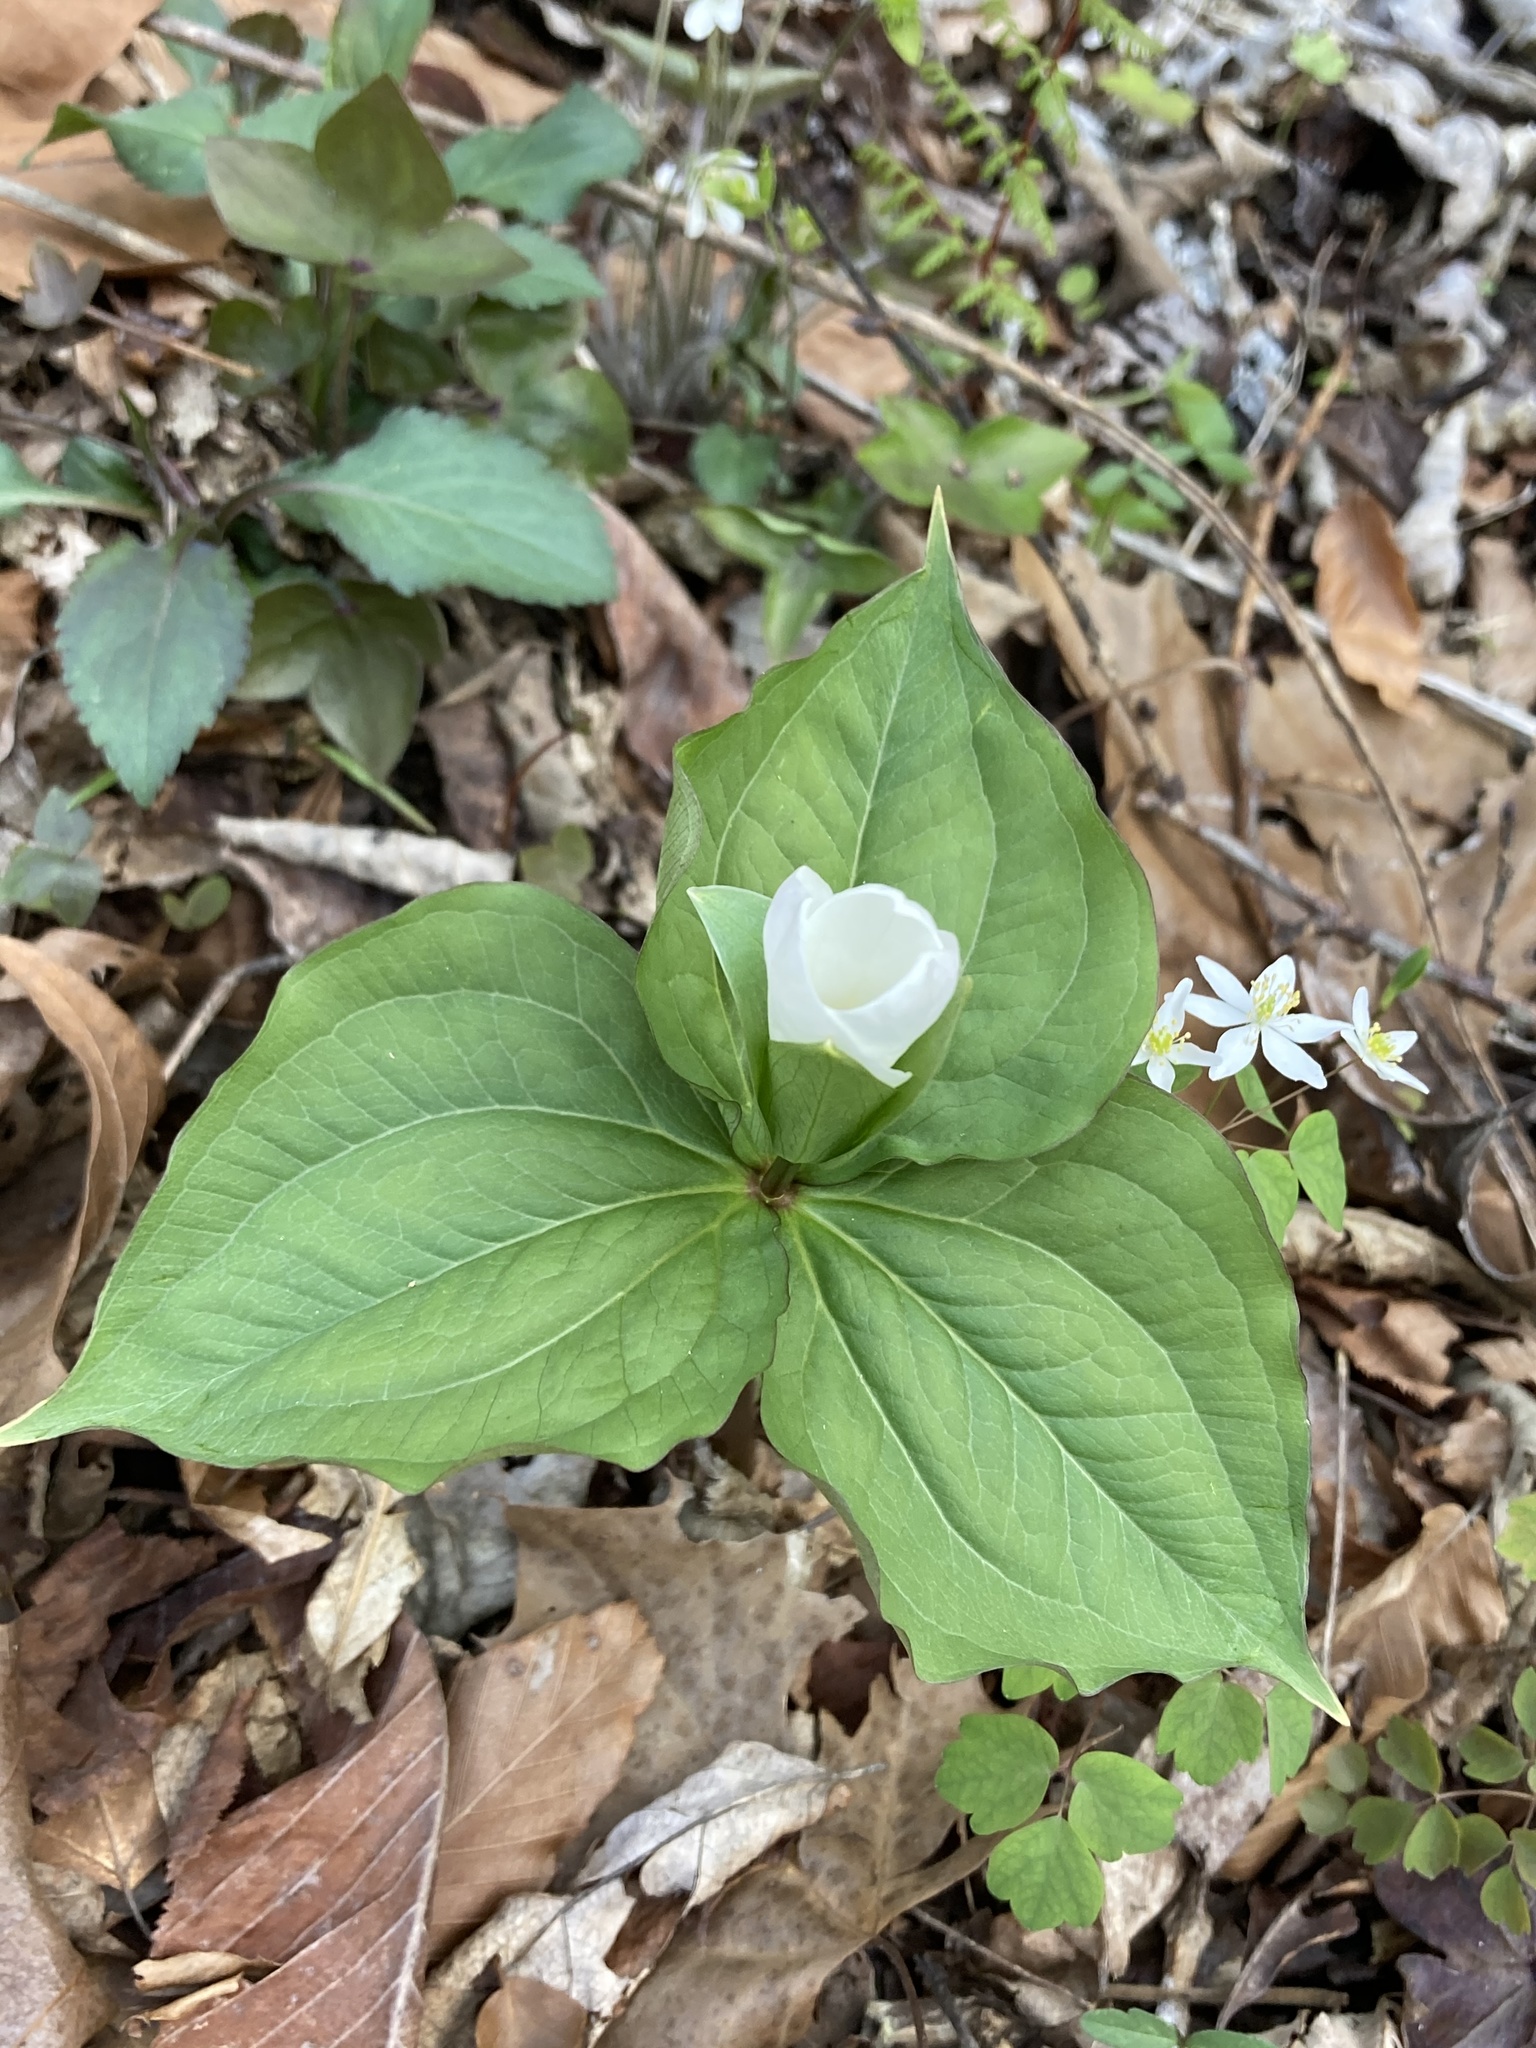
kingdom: Plantae
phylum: Tracheophyta
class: Liliopsida
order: Liliales
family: Melanthiaceae
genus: Trillium
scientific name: Trillium grandiflorum
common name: Great white trillium
